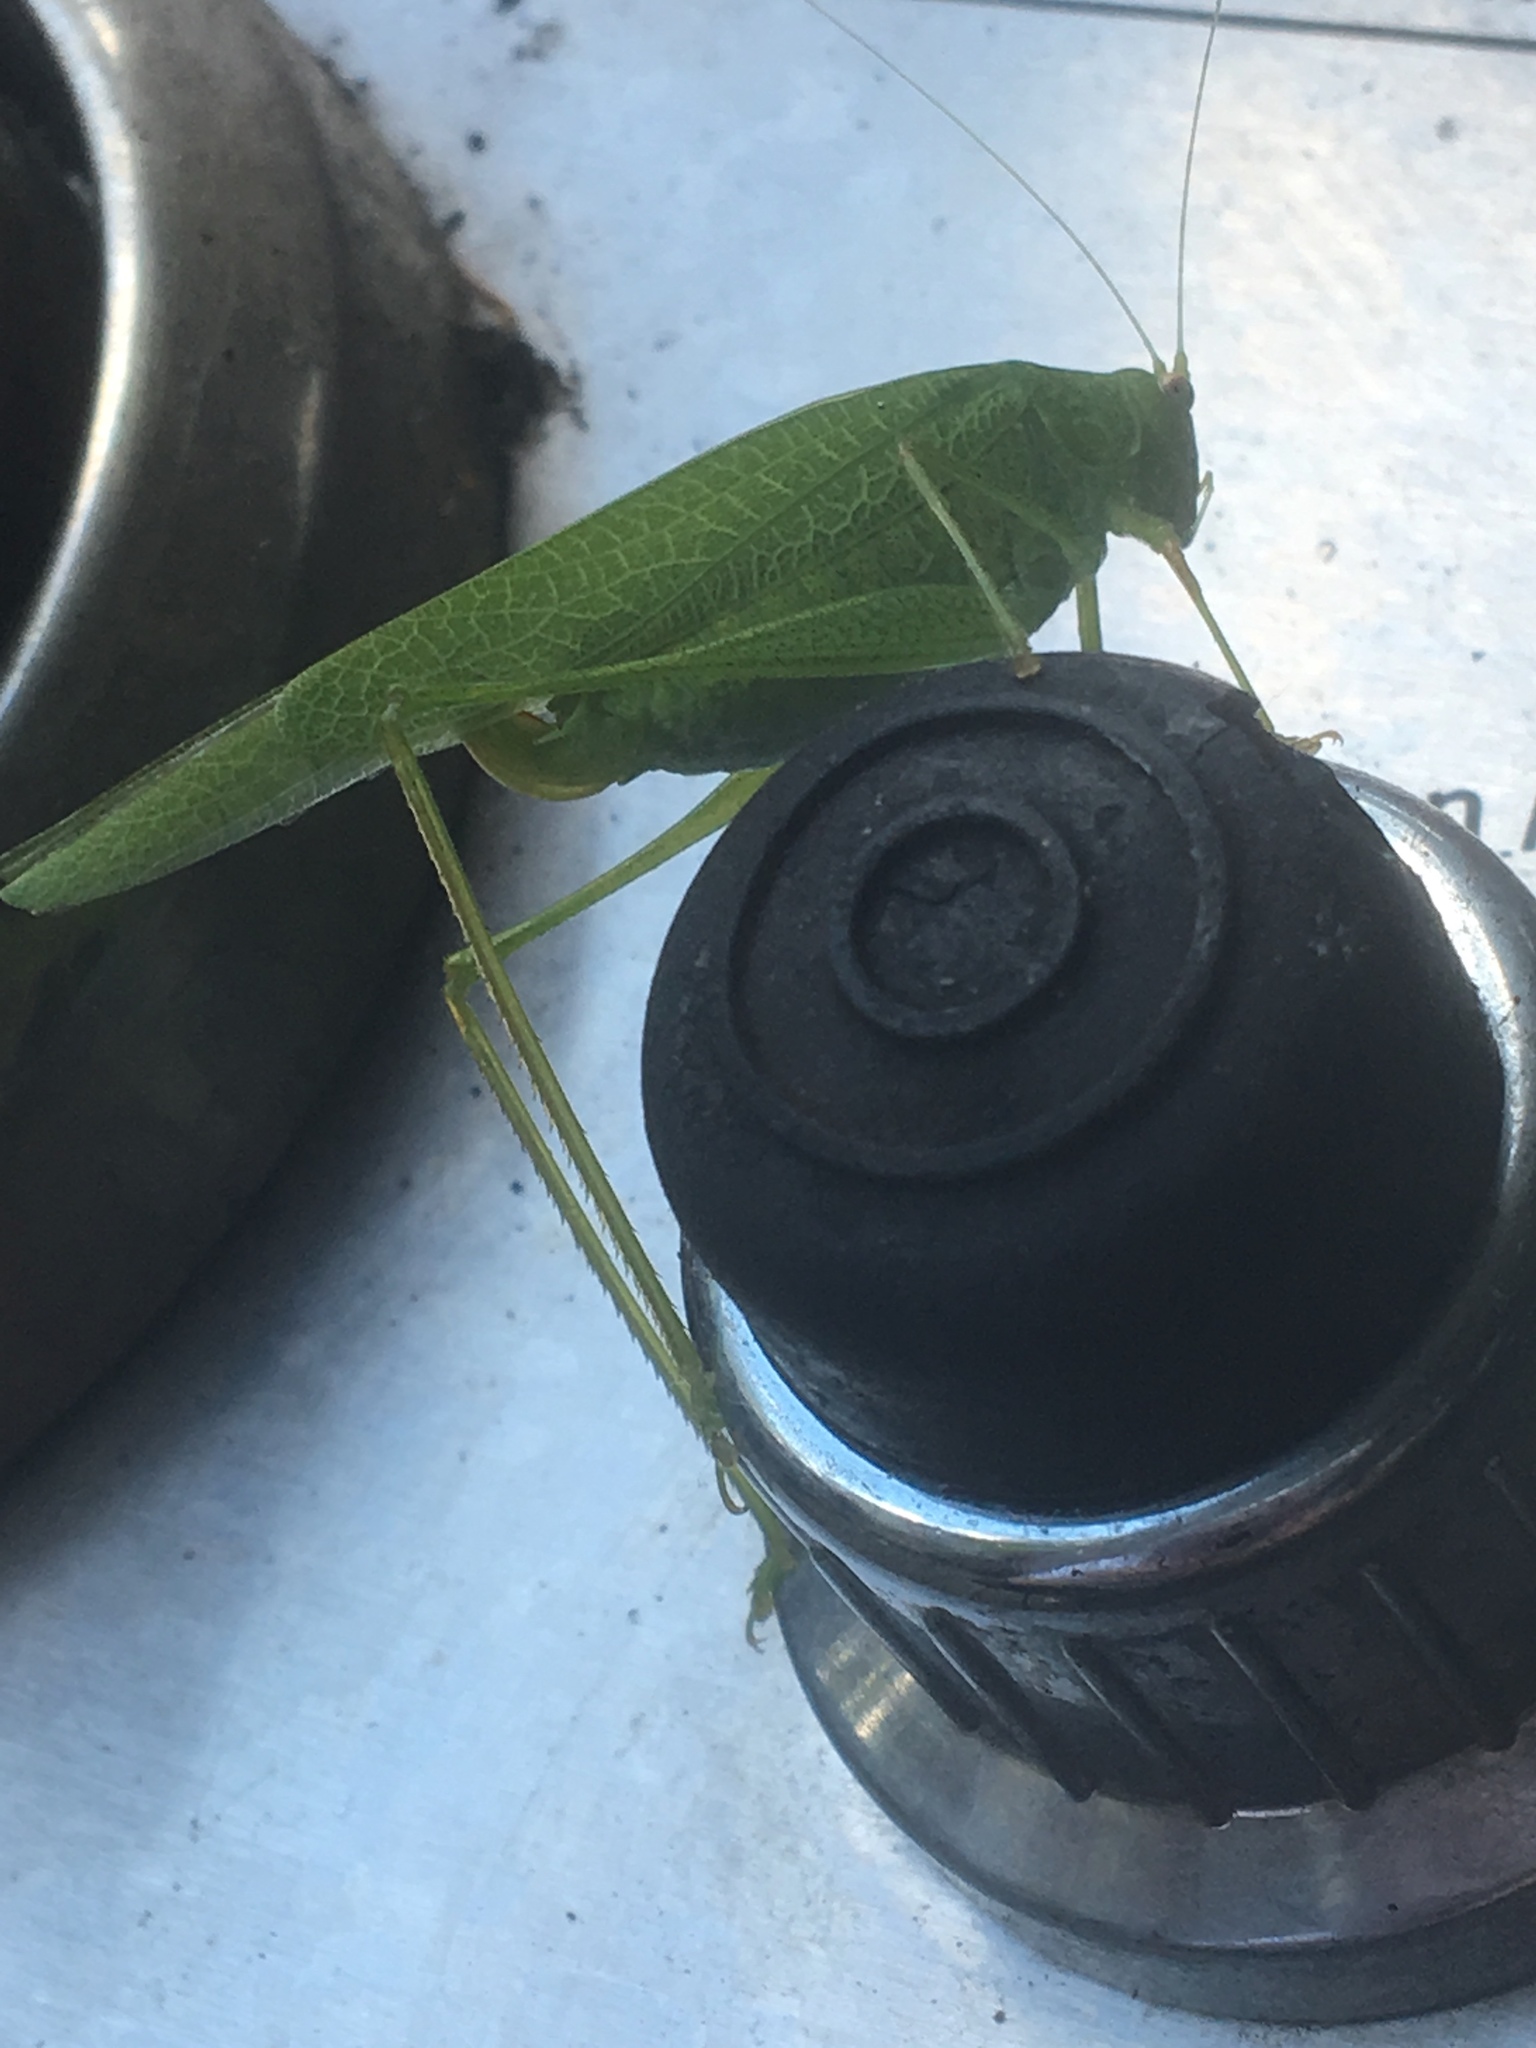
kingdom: Animalia
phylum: Arthropoda
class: Insecta
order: Orthoptera
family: Tettigoniidae
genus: Phaneroptera
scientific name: Phaneroptera nana
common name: Southern sickle bush-cricket
